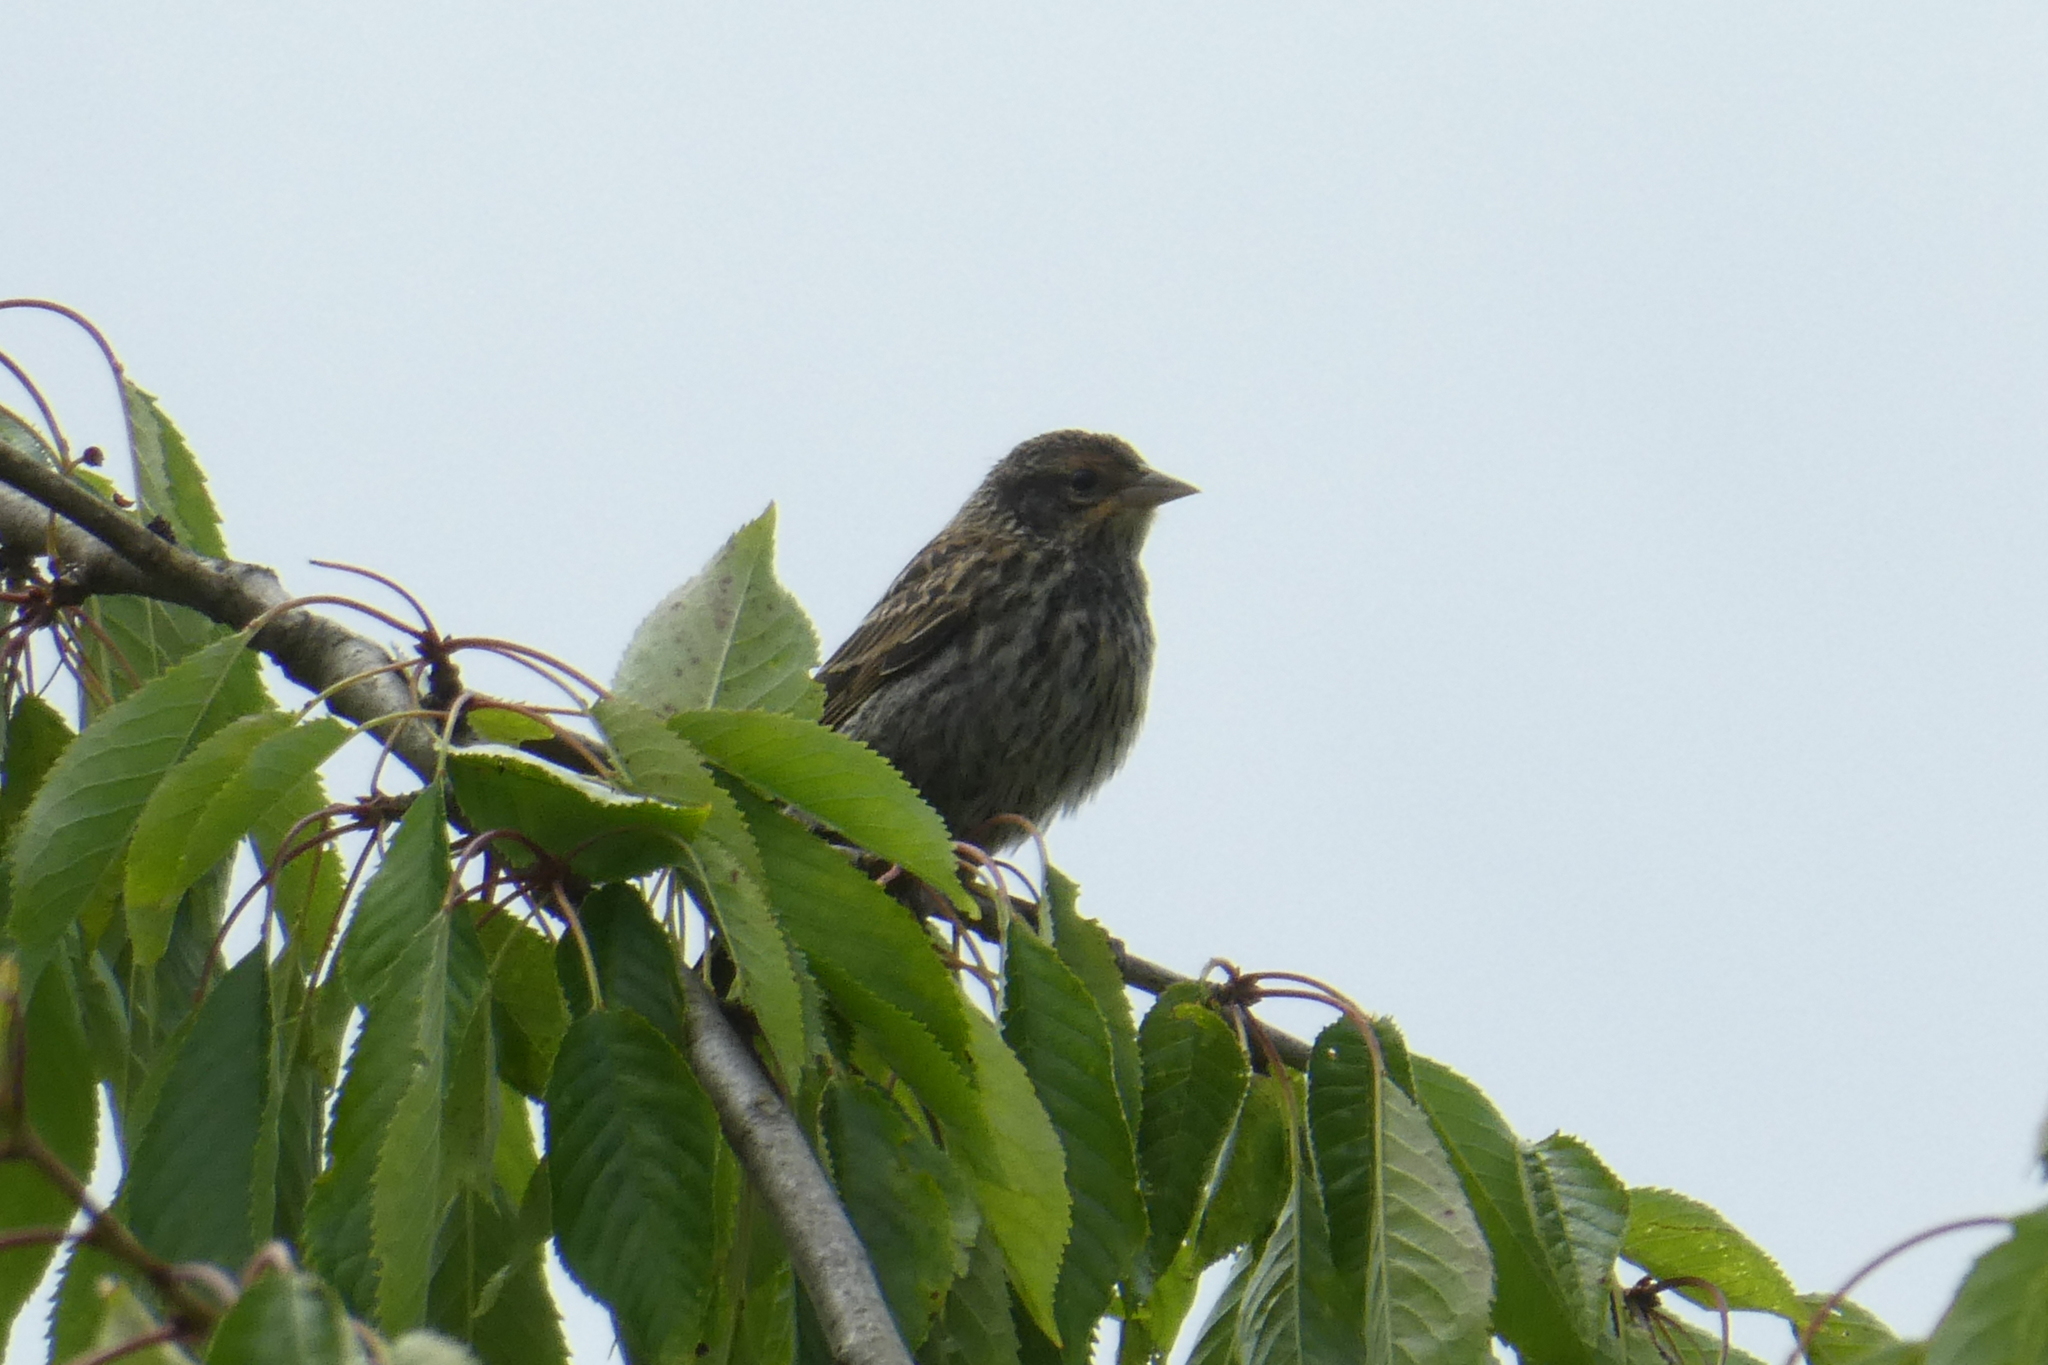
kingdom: Animalia
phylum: Chordata
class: Aves
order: Passeriformes
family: Icteridae
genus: Agelaius
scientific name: Agelaius phoeniceus
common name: Red-winged blackbird
